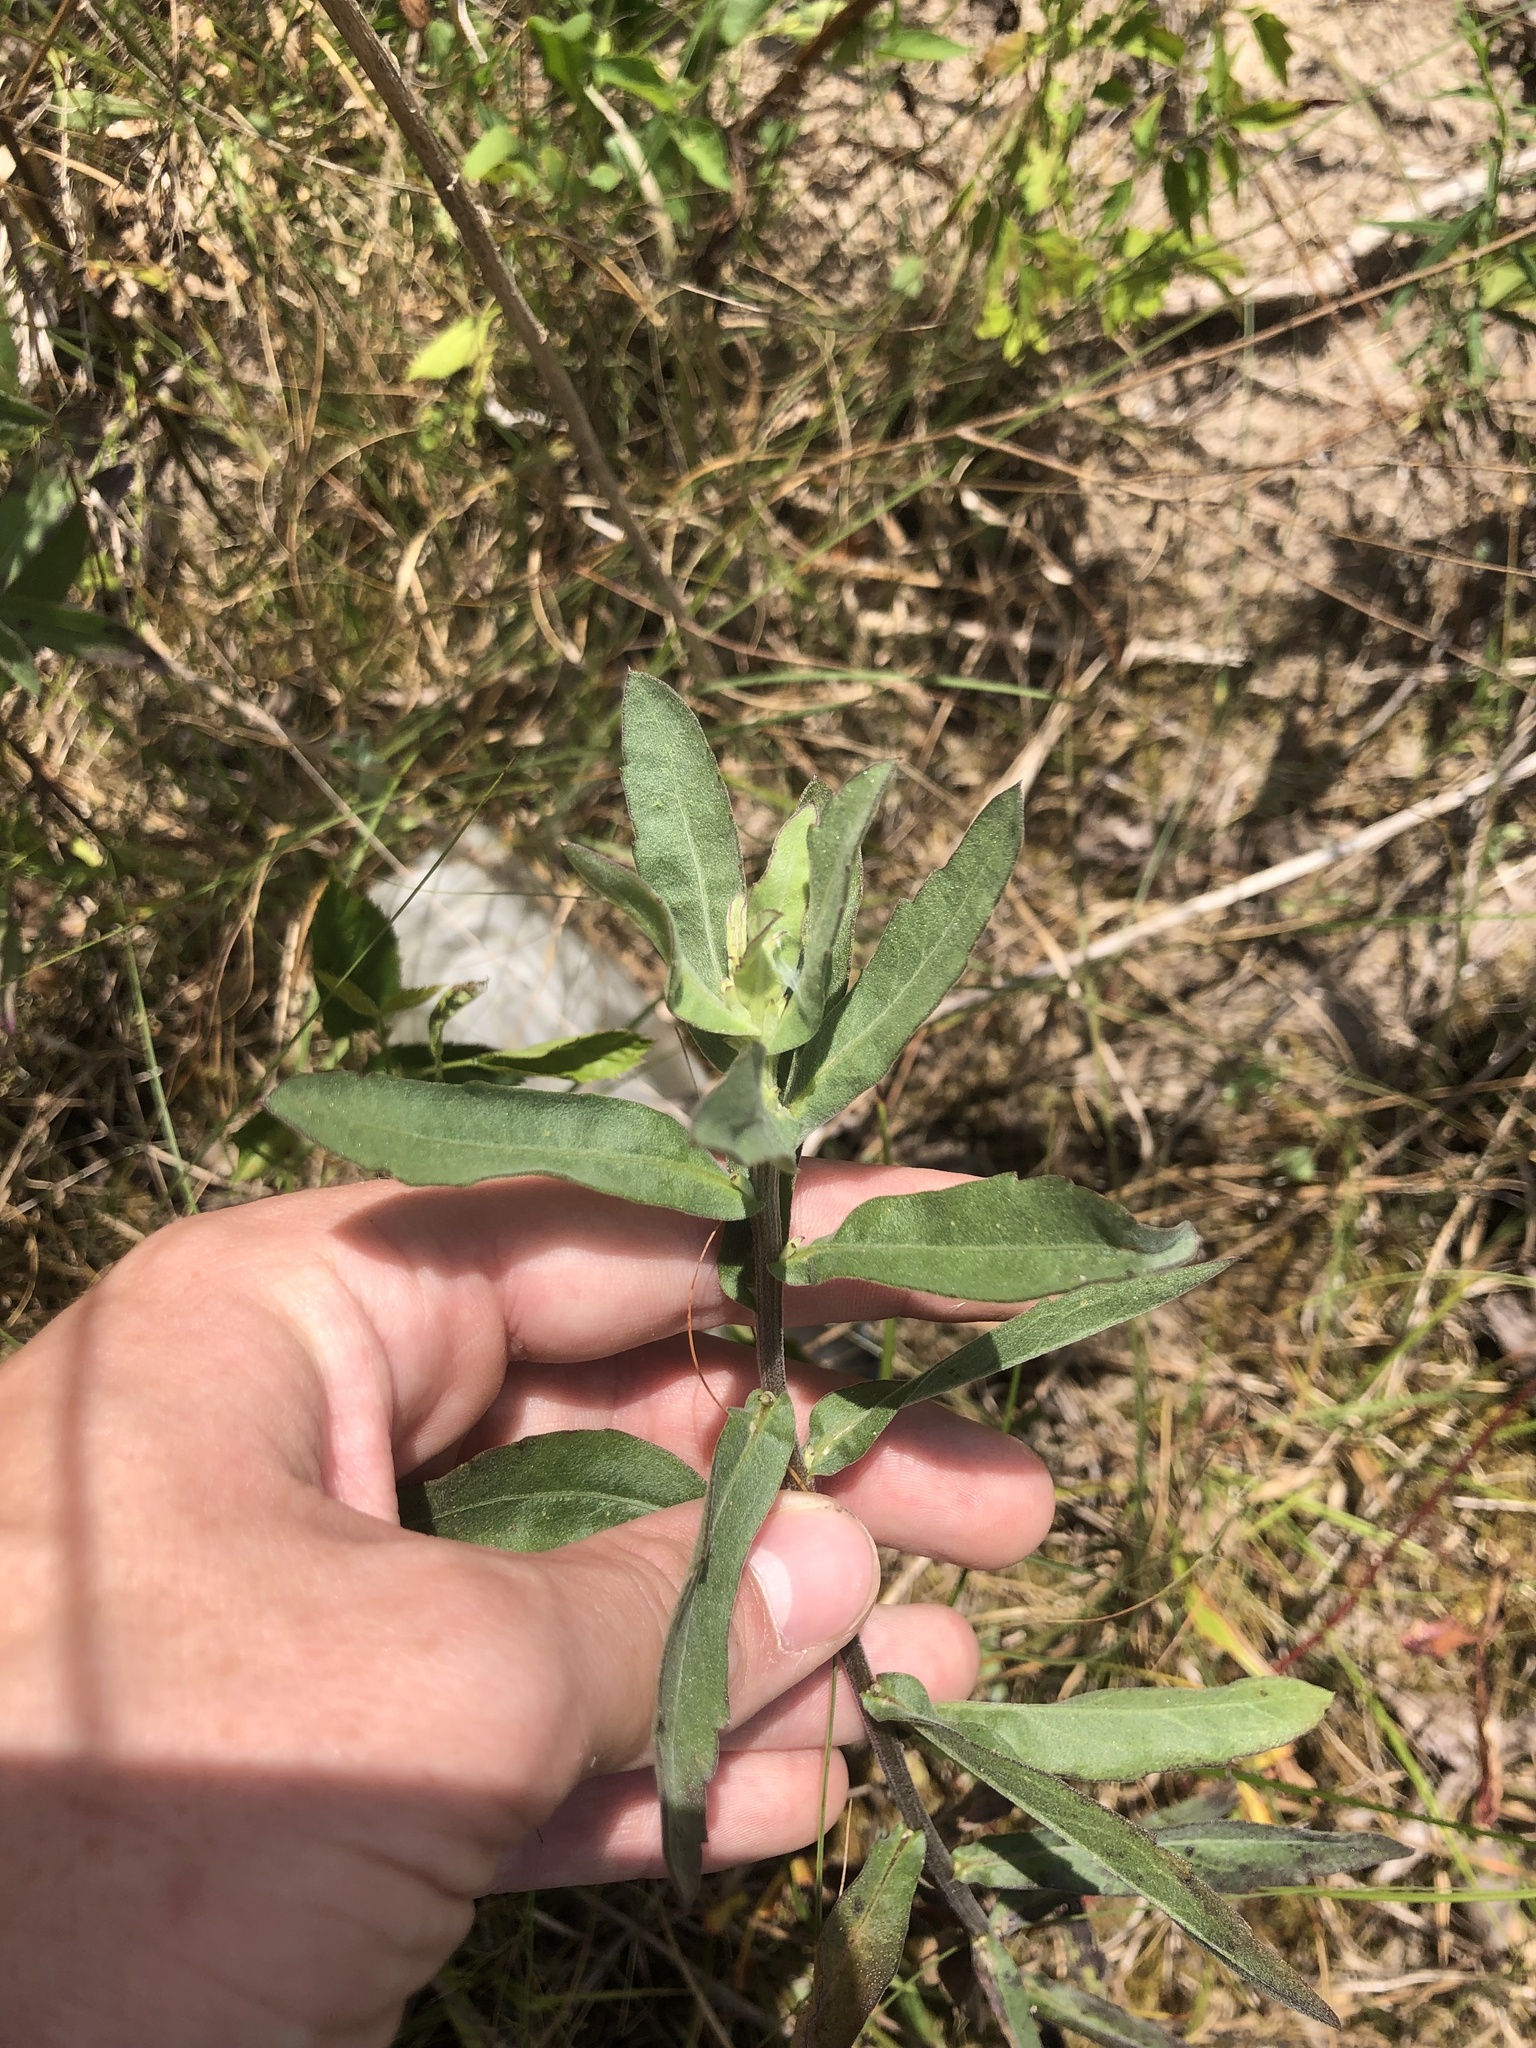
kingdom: Plantae
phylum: Tracheophyta
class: Magnoliopsida
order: Asterales
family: Asteraceae
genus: Gaillardia
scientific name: Gaillardia aestivalis
